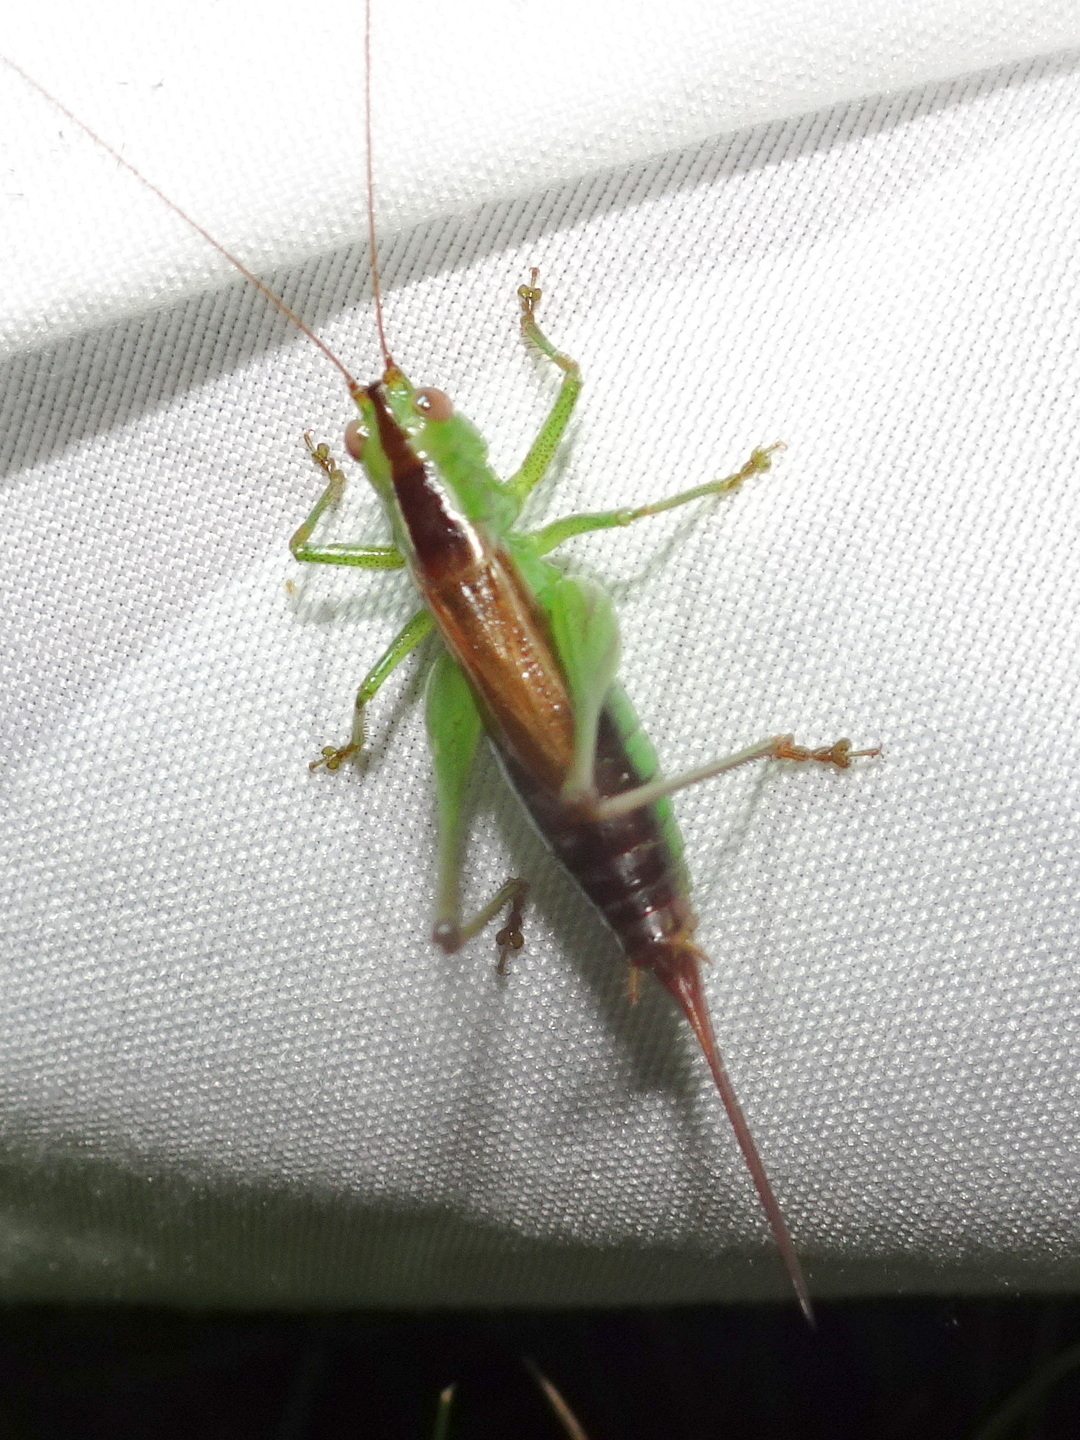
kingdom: Animalia
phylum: Arthropoda
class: Insecta
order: Orthoptera
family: Tettigoniidae
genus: Conocephalus
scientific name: Conocephalus brevipennis
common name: Short-winged meadow katydid
